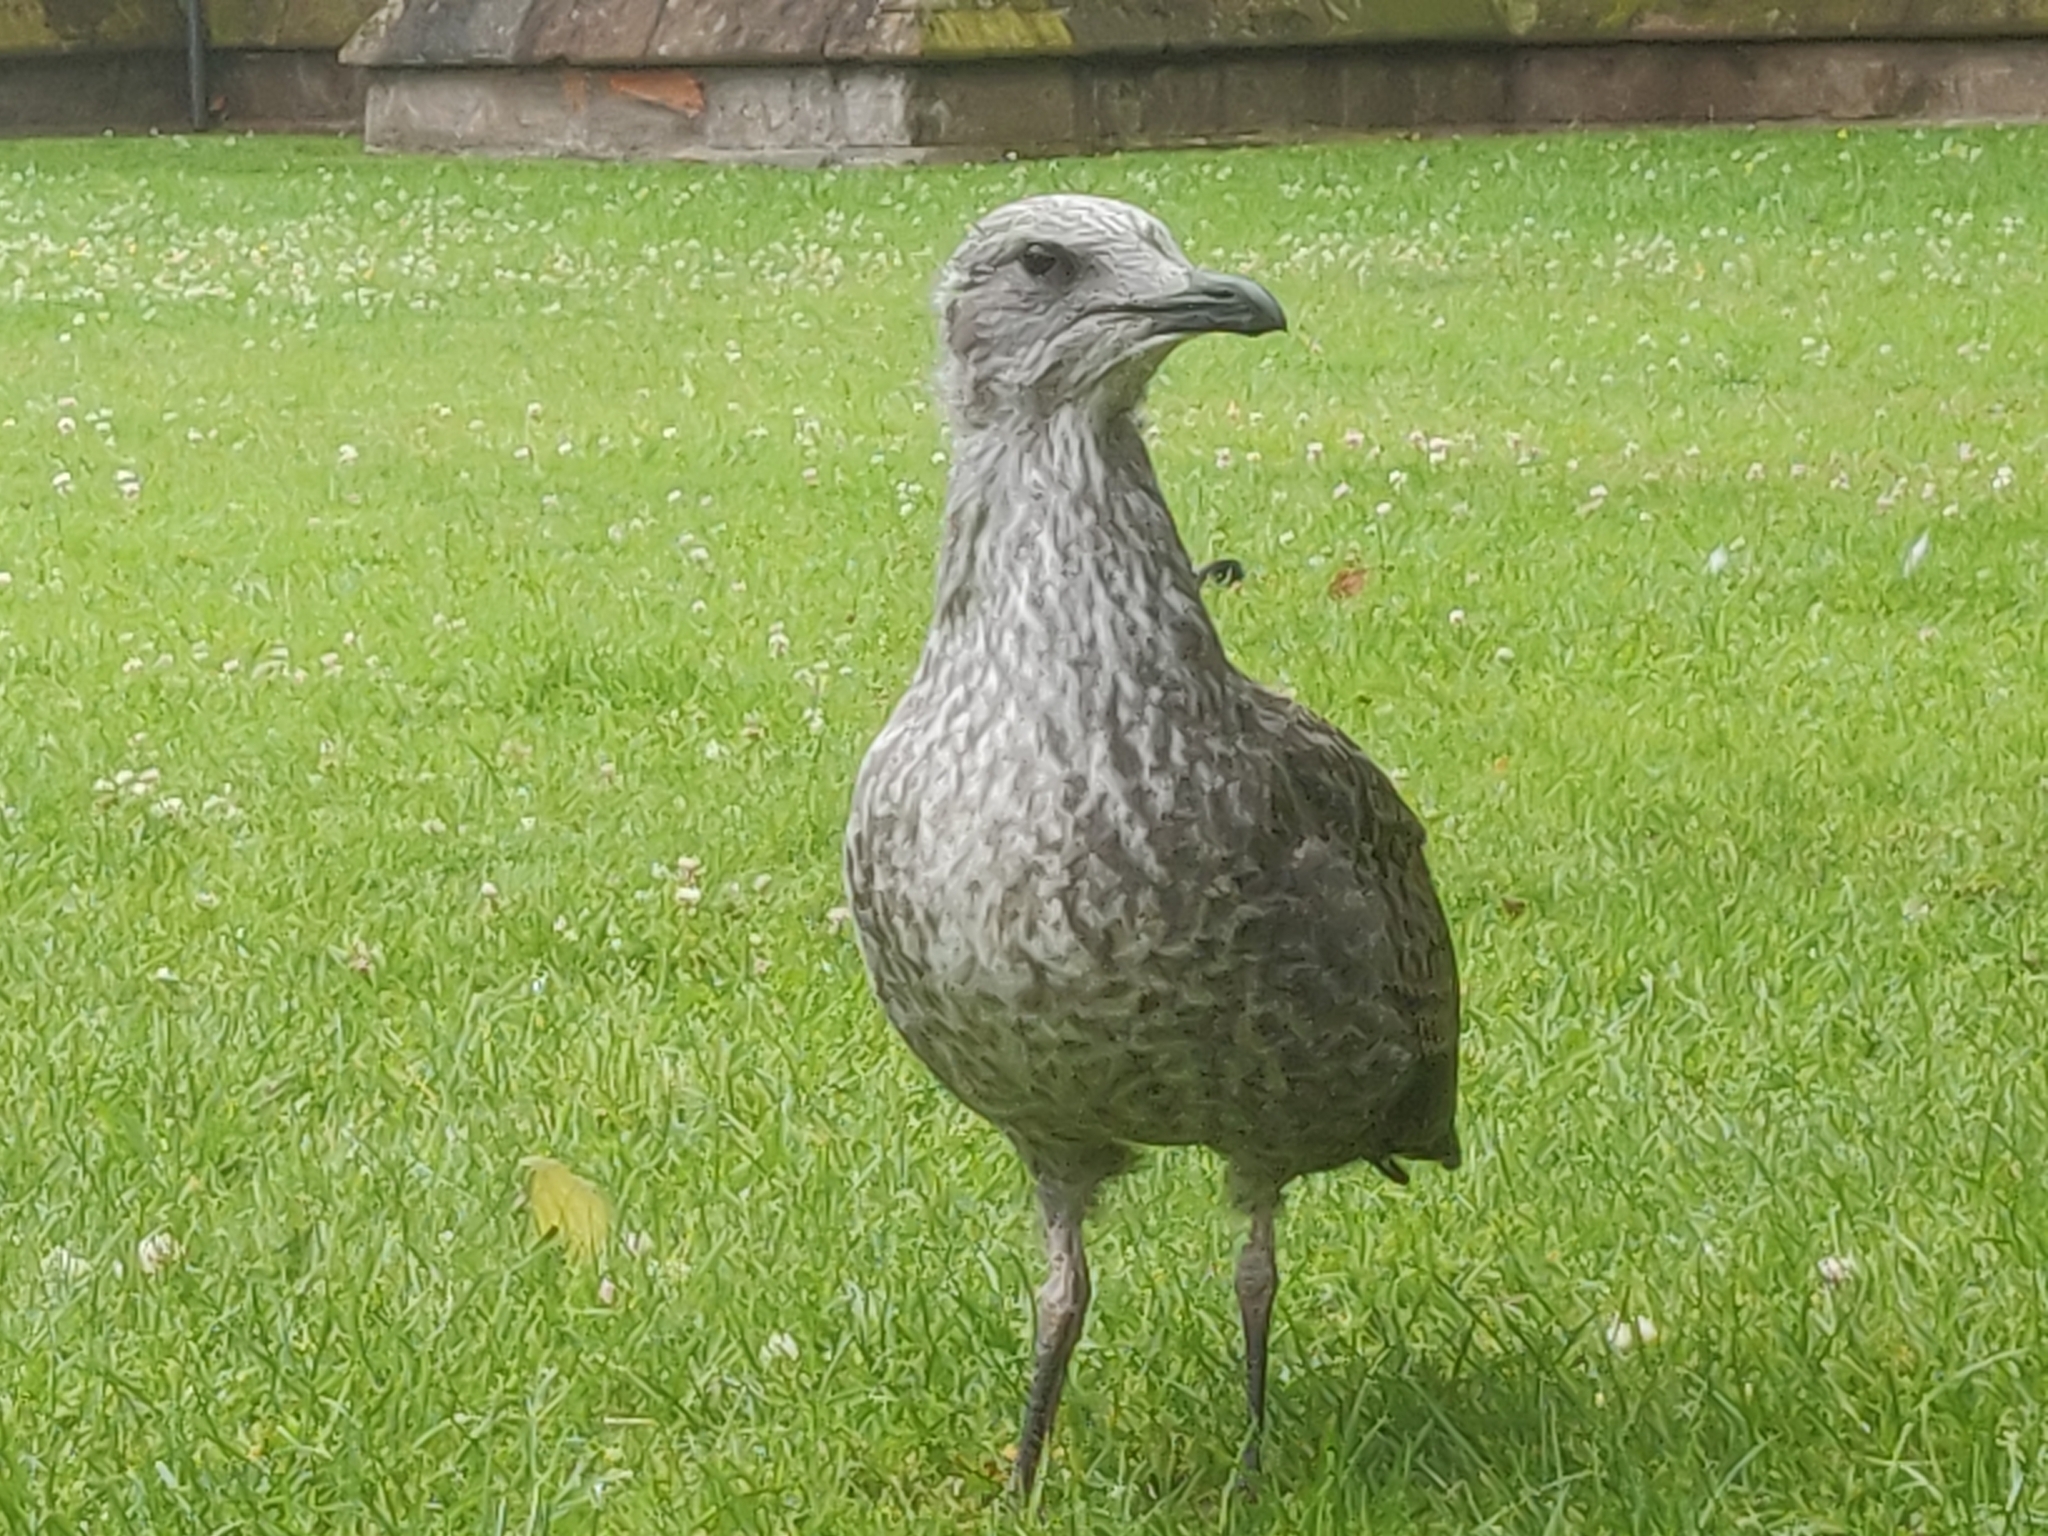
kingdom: Animalia
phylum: Chordata
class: Aves
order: Charadriiformes
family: Laridae
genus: Larus
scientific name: Larus fuscus
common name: Lesser black-backed gull
